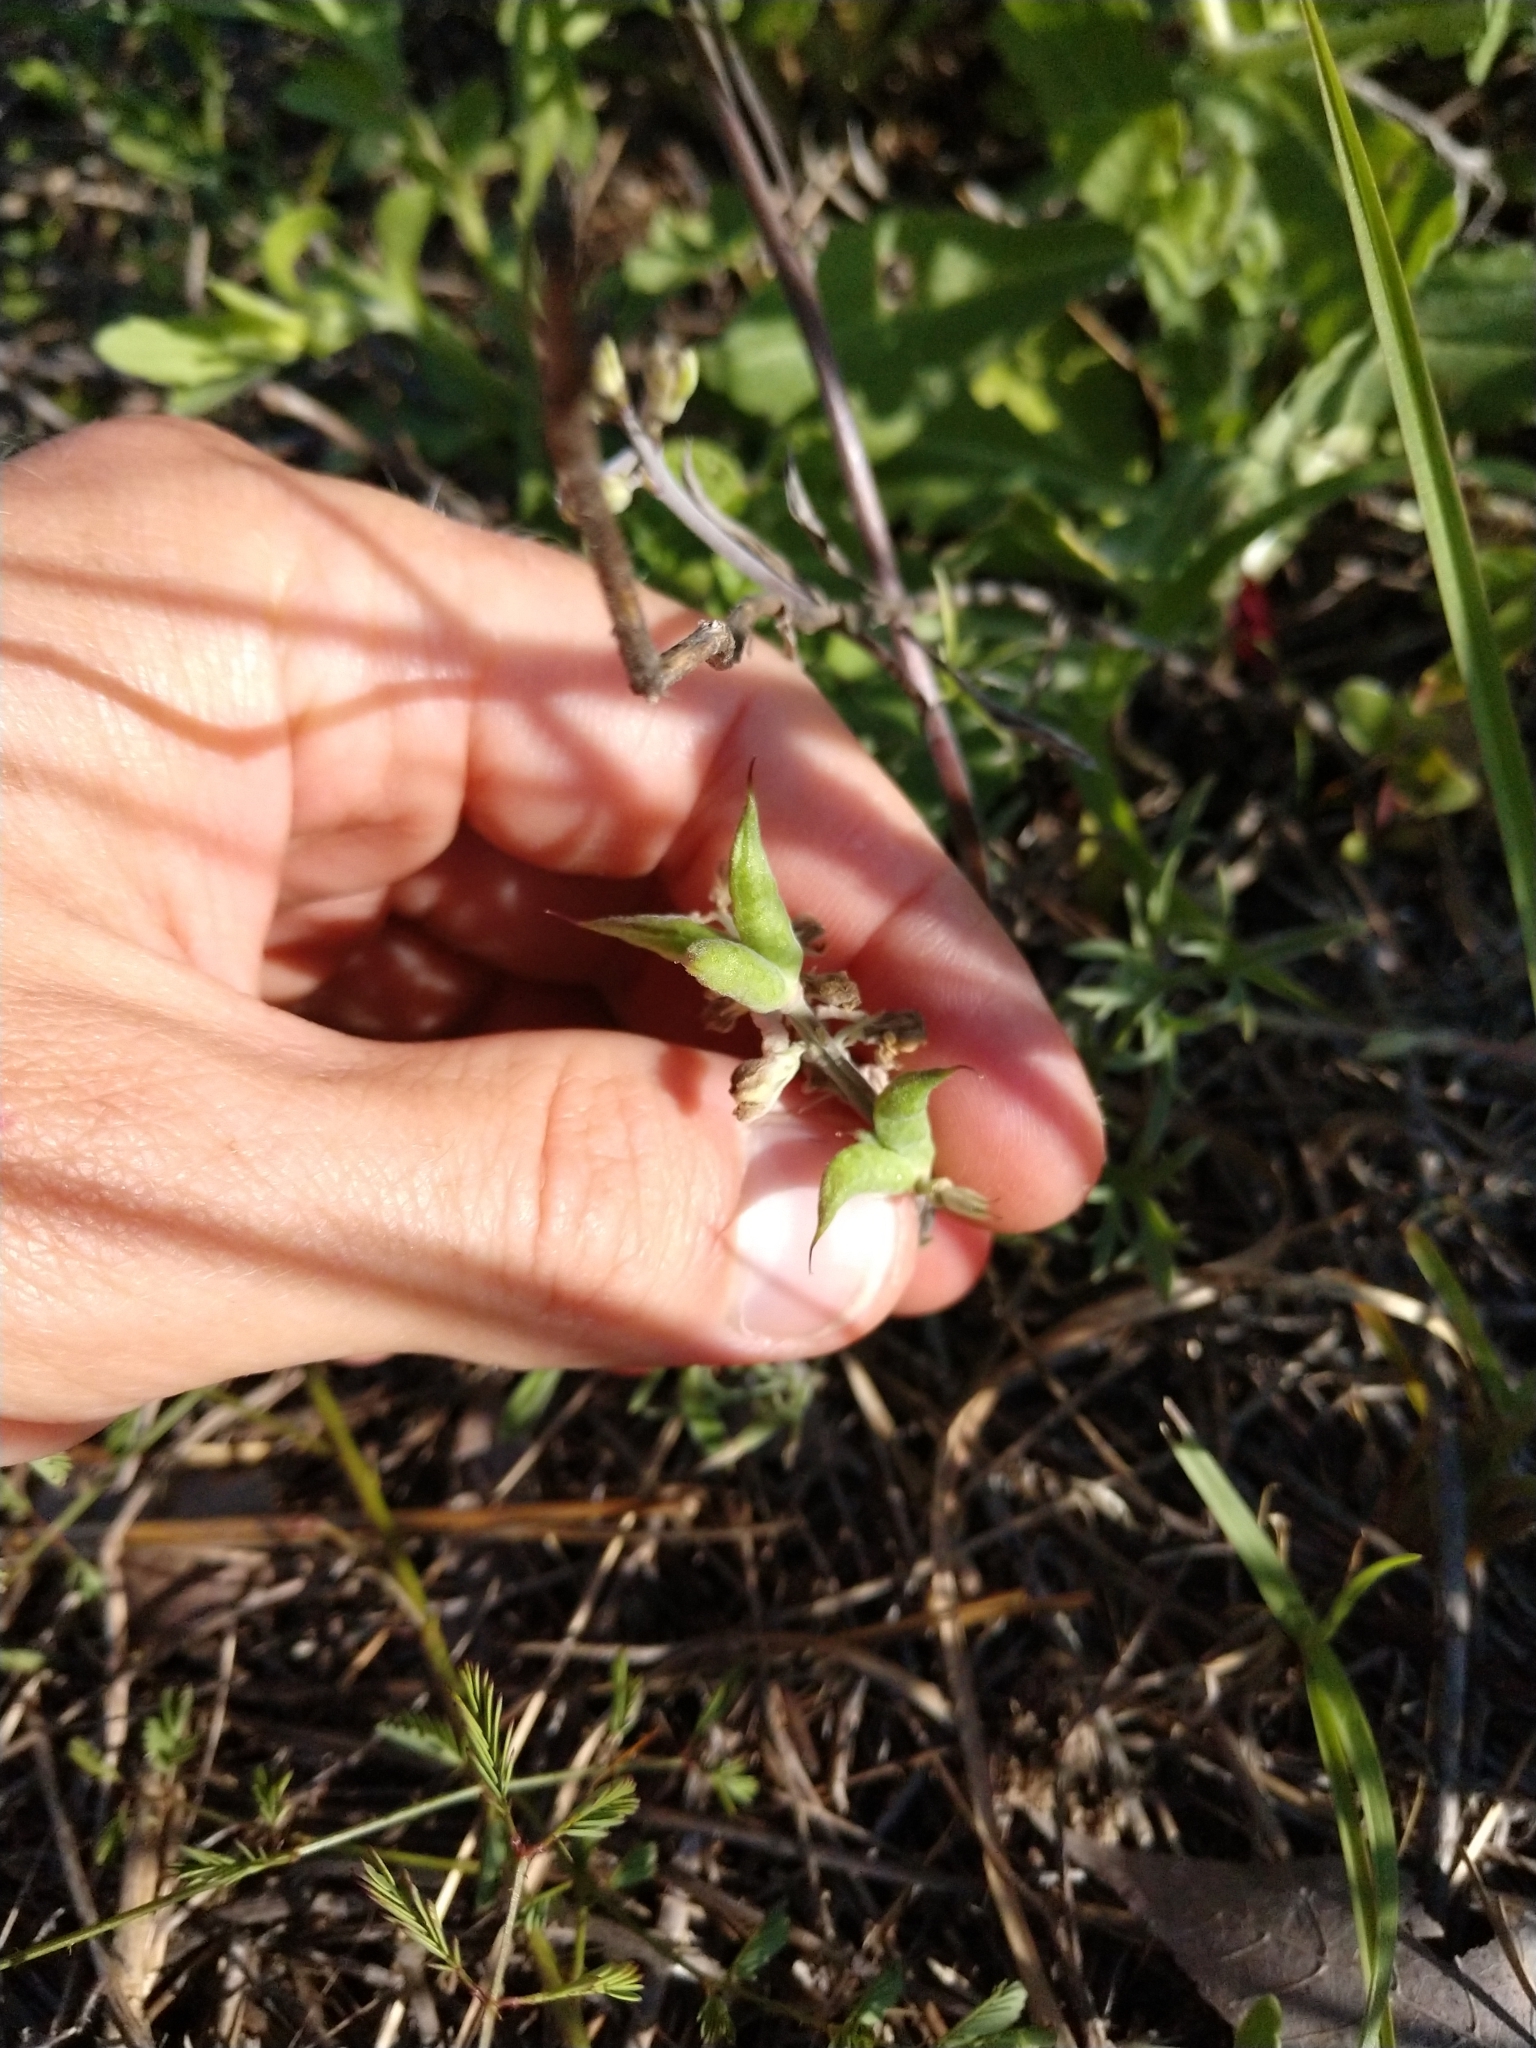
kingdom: Plantae
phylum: Tracheophyta
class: Magnoliopsida
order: Ranunculales
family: Ranunculaceae
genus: Delphinium
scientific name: Delphinium carolinianum
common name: Carolina larkspur
